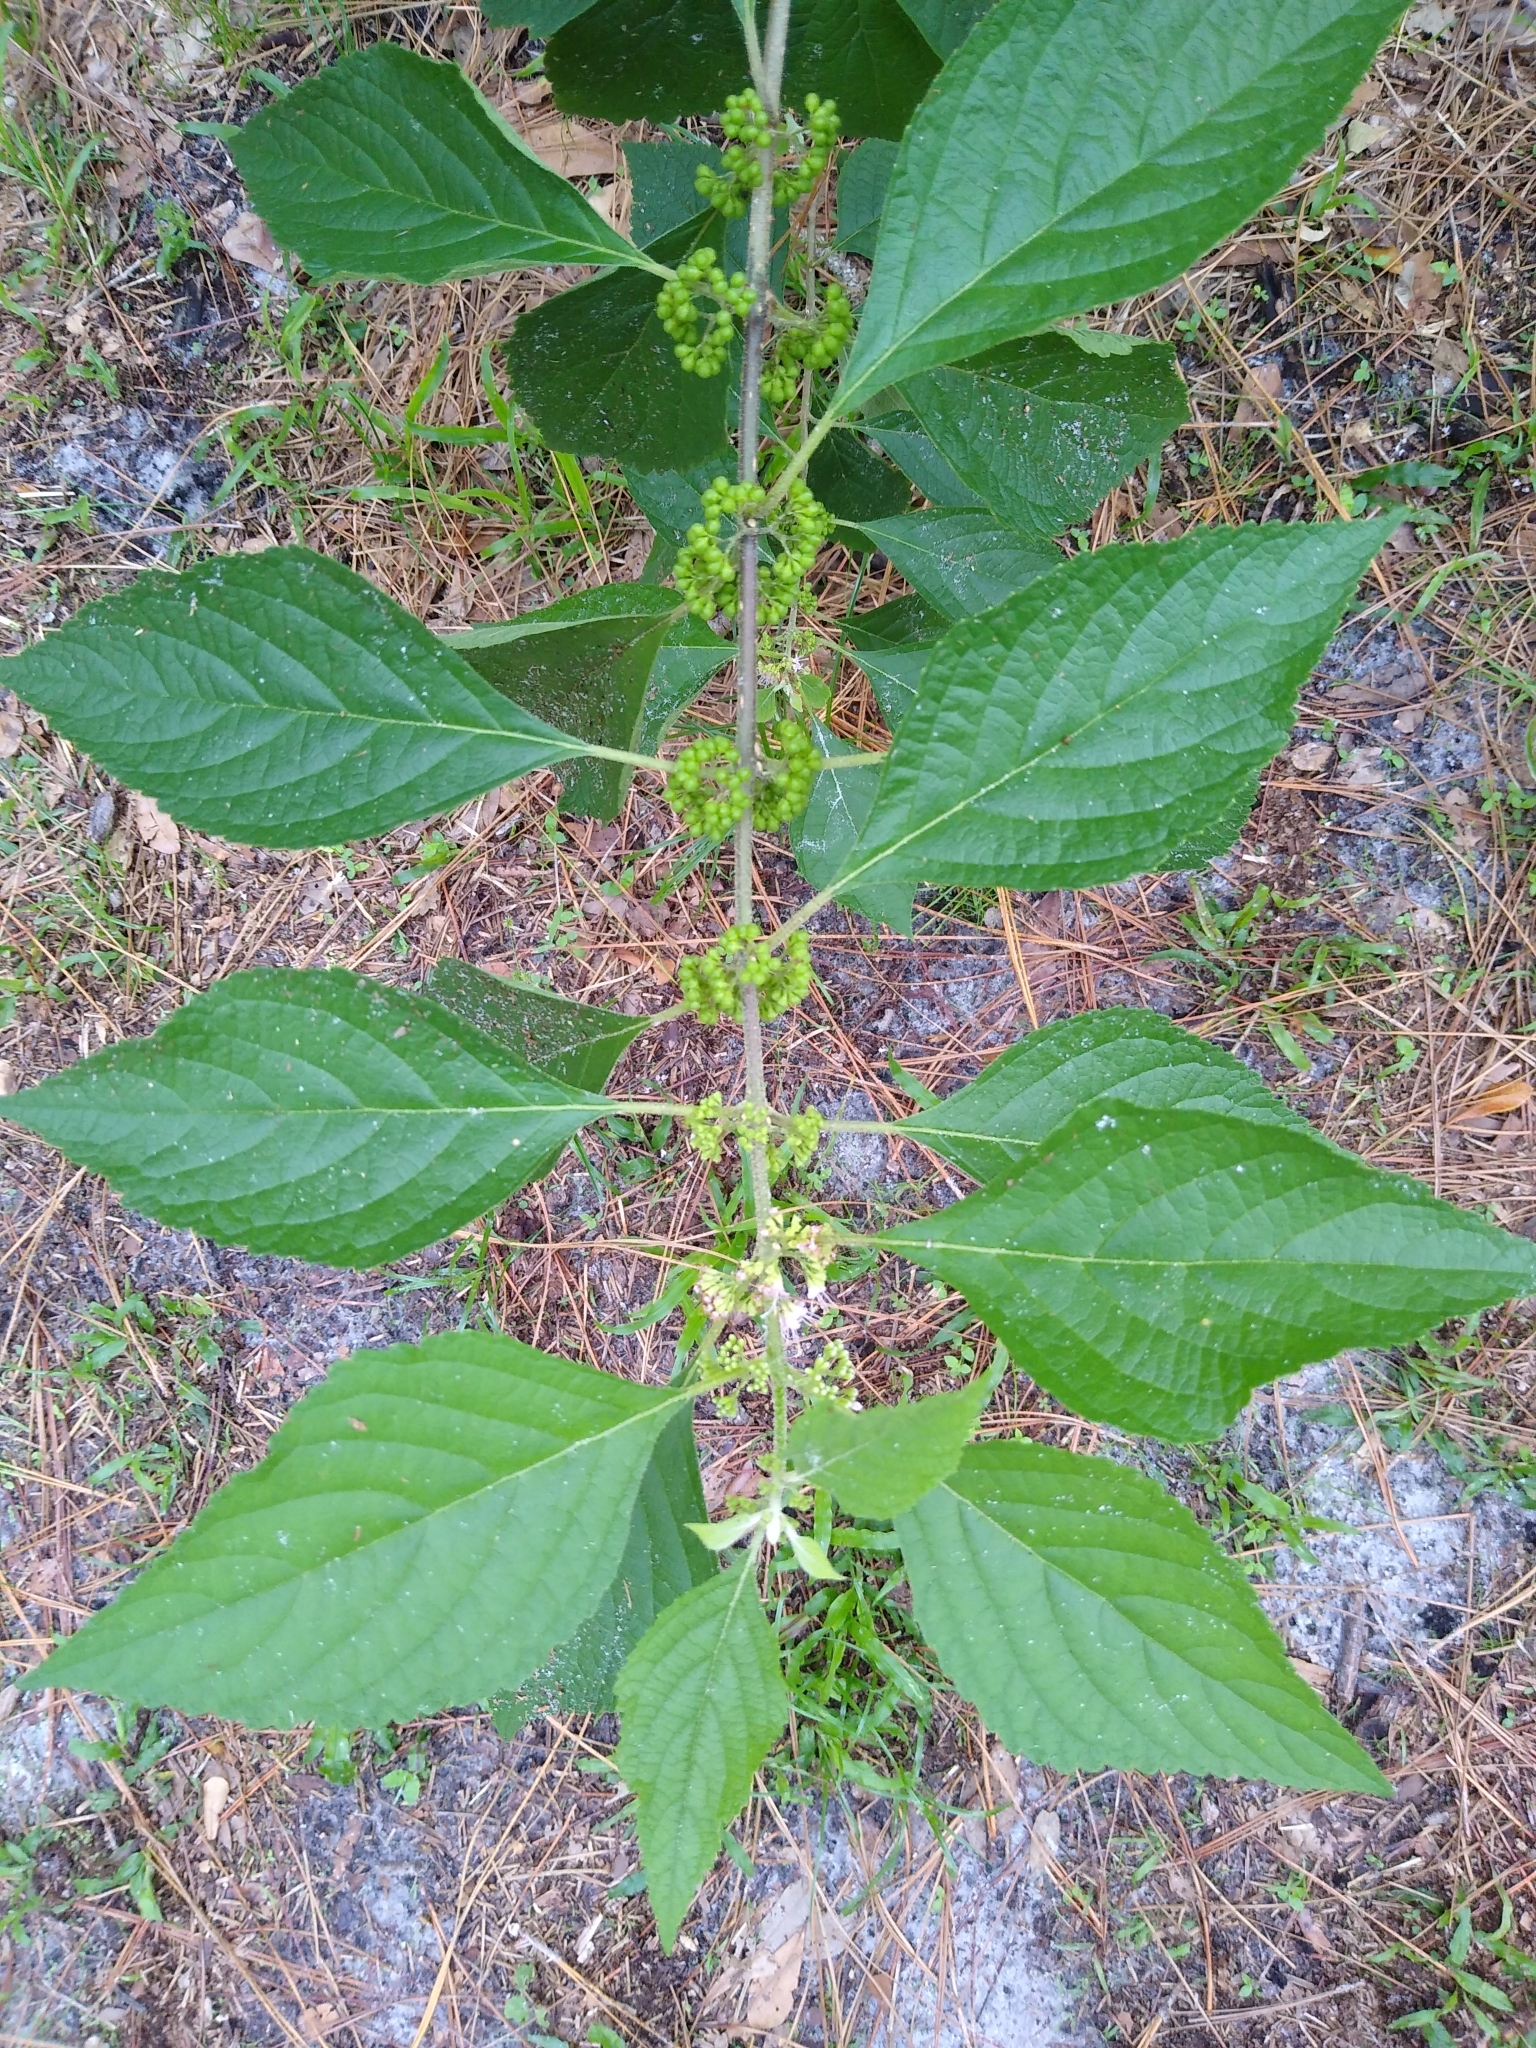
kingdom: Plantae
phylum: Tracheophyta
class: Magnoliopsida
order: Lamiales
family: Lamiaceae
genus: Callicarpa
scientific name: Callicarpa americana
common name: American beautyberry
